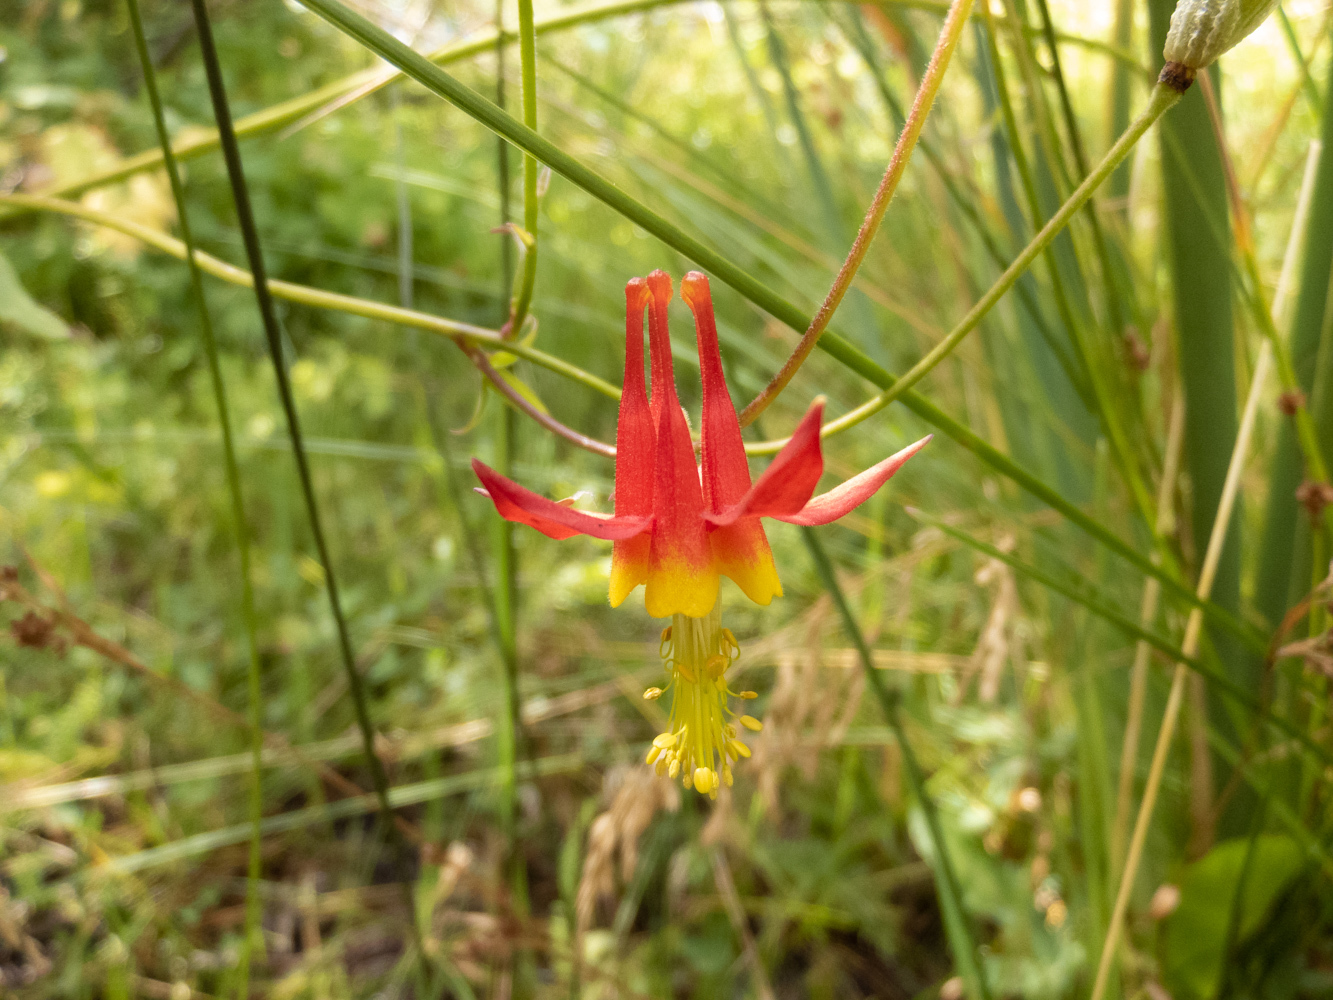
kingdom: Plantae
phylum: Tracheophyta
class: Magnoliopsida
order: Ranunculales
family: Ranunculaceae
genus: Aquilegia
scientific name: Aquilegia formosa
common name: Sitka columbine
